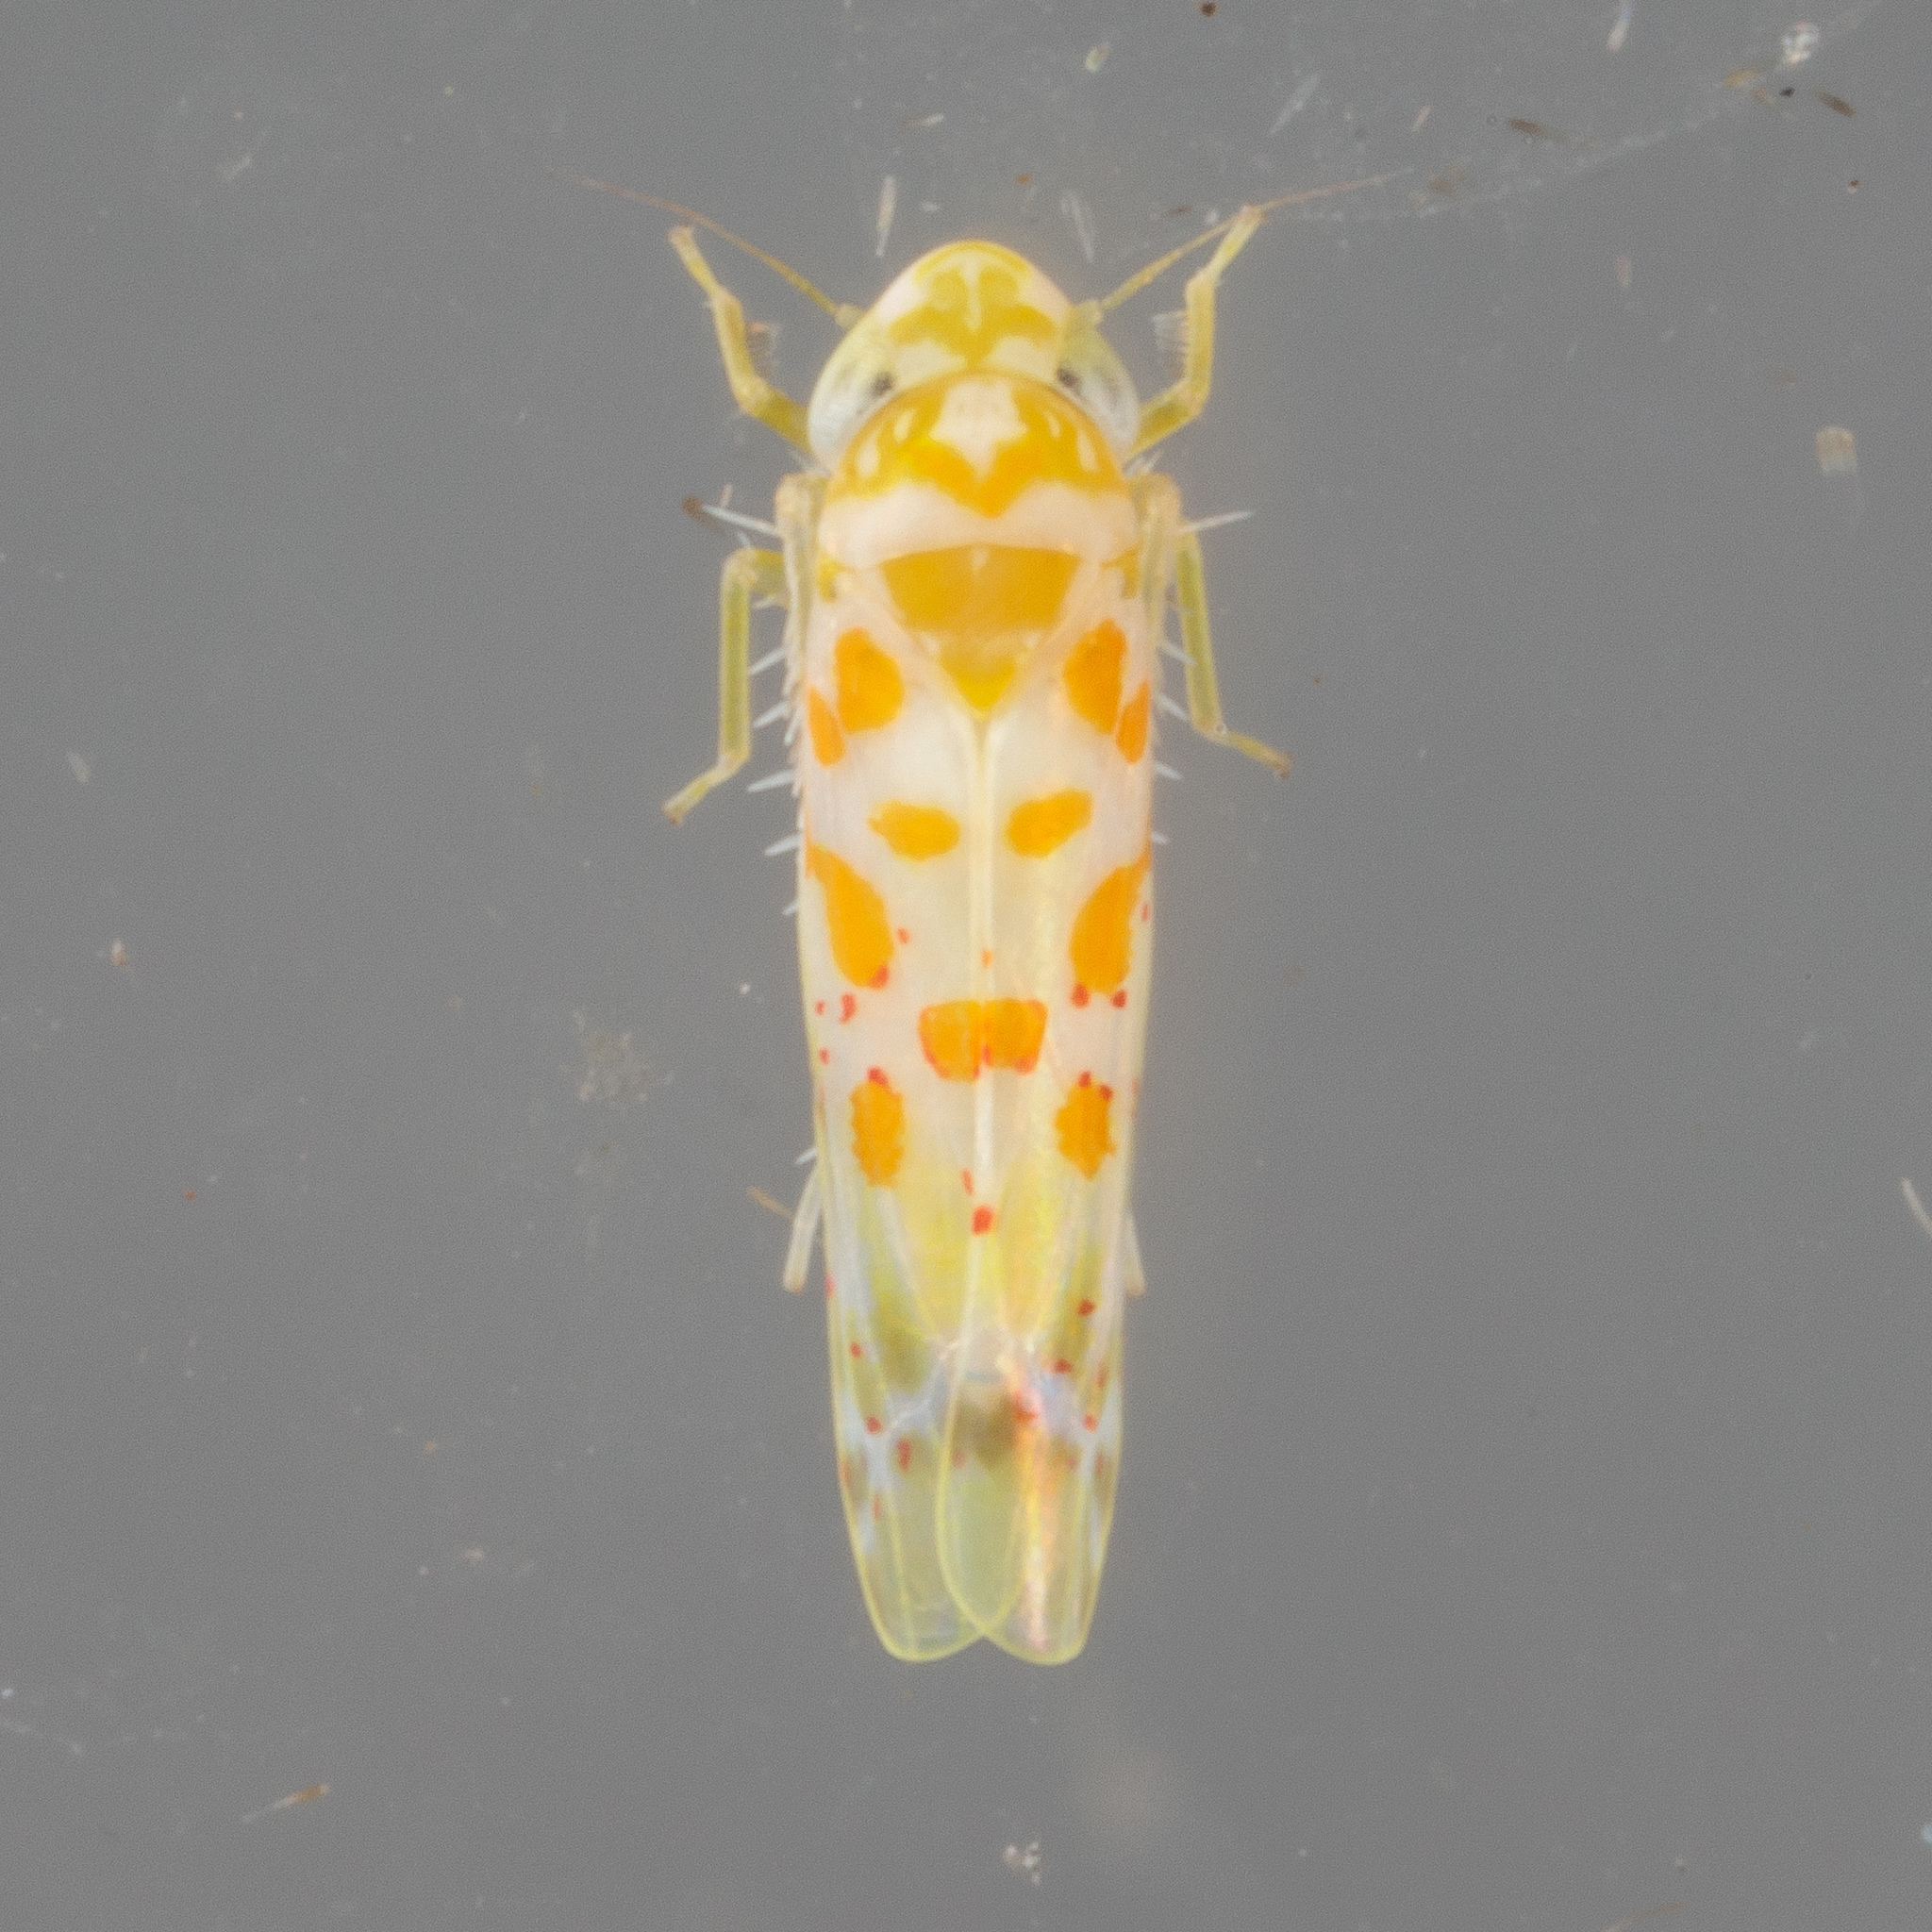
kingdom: Animalia
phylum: Arthropoda
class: Insecta
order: Hemiptera
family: Cicadellidae
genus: Dikrella
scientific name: Dikrella maculata
